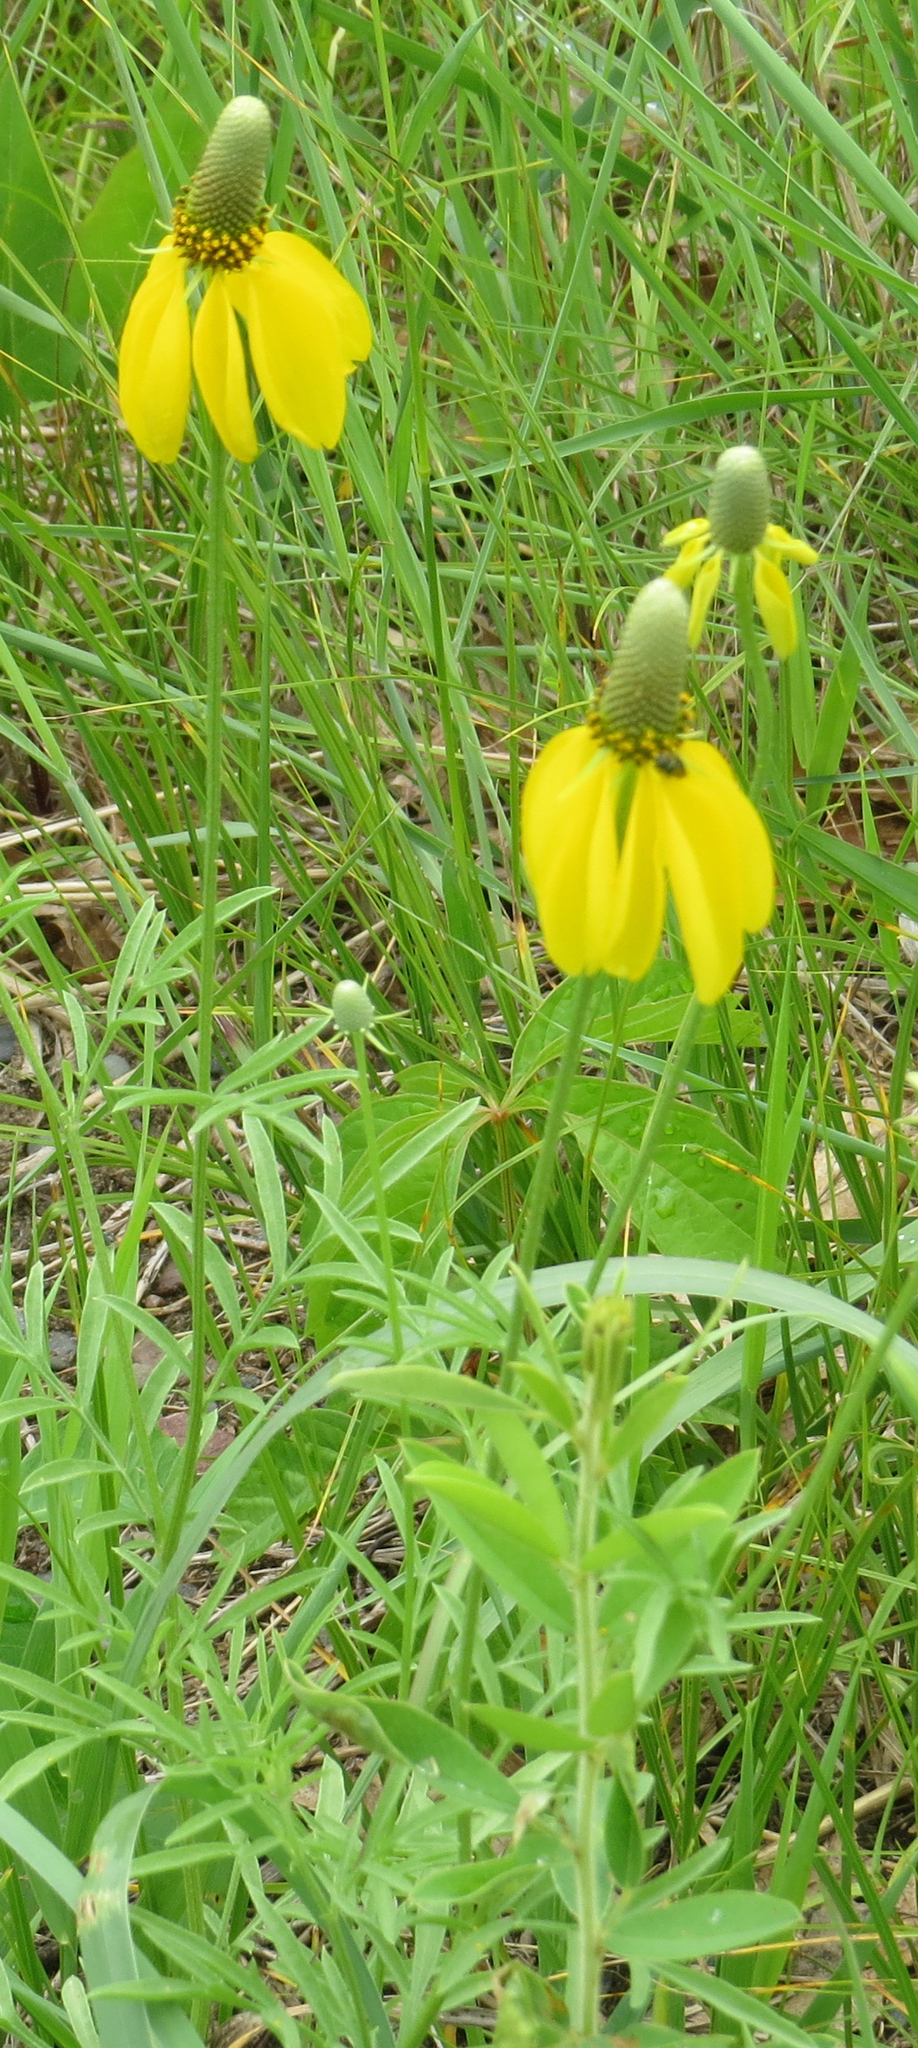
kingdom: Plantae
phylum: Tracheophyta
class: Magnoliopsida
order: Asterales
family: Asteraceae
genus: Ratibida
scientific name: Ratibida columnifera
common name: Prairie coneflower
